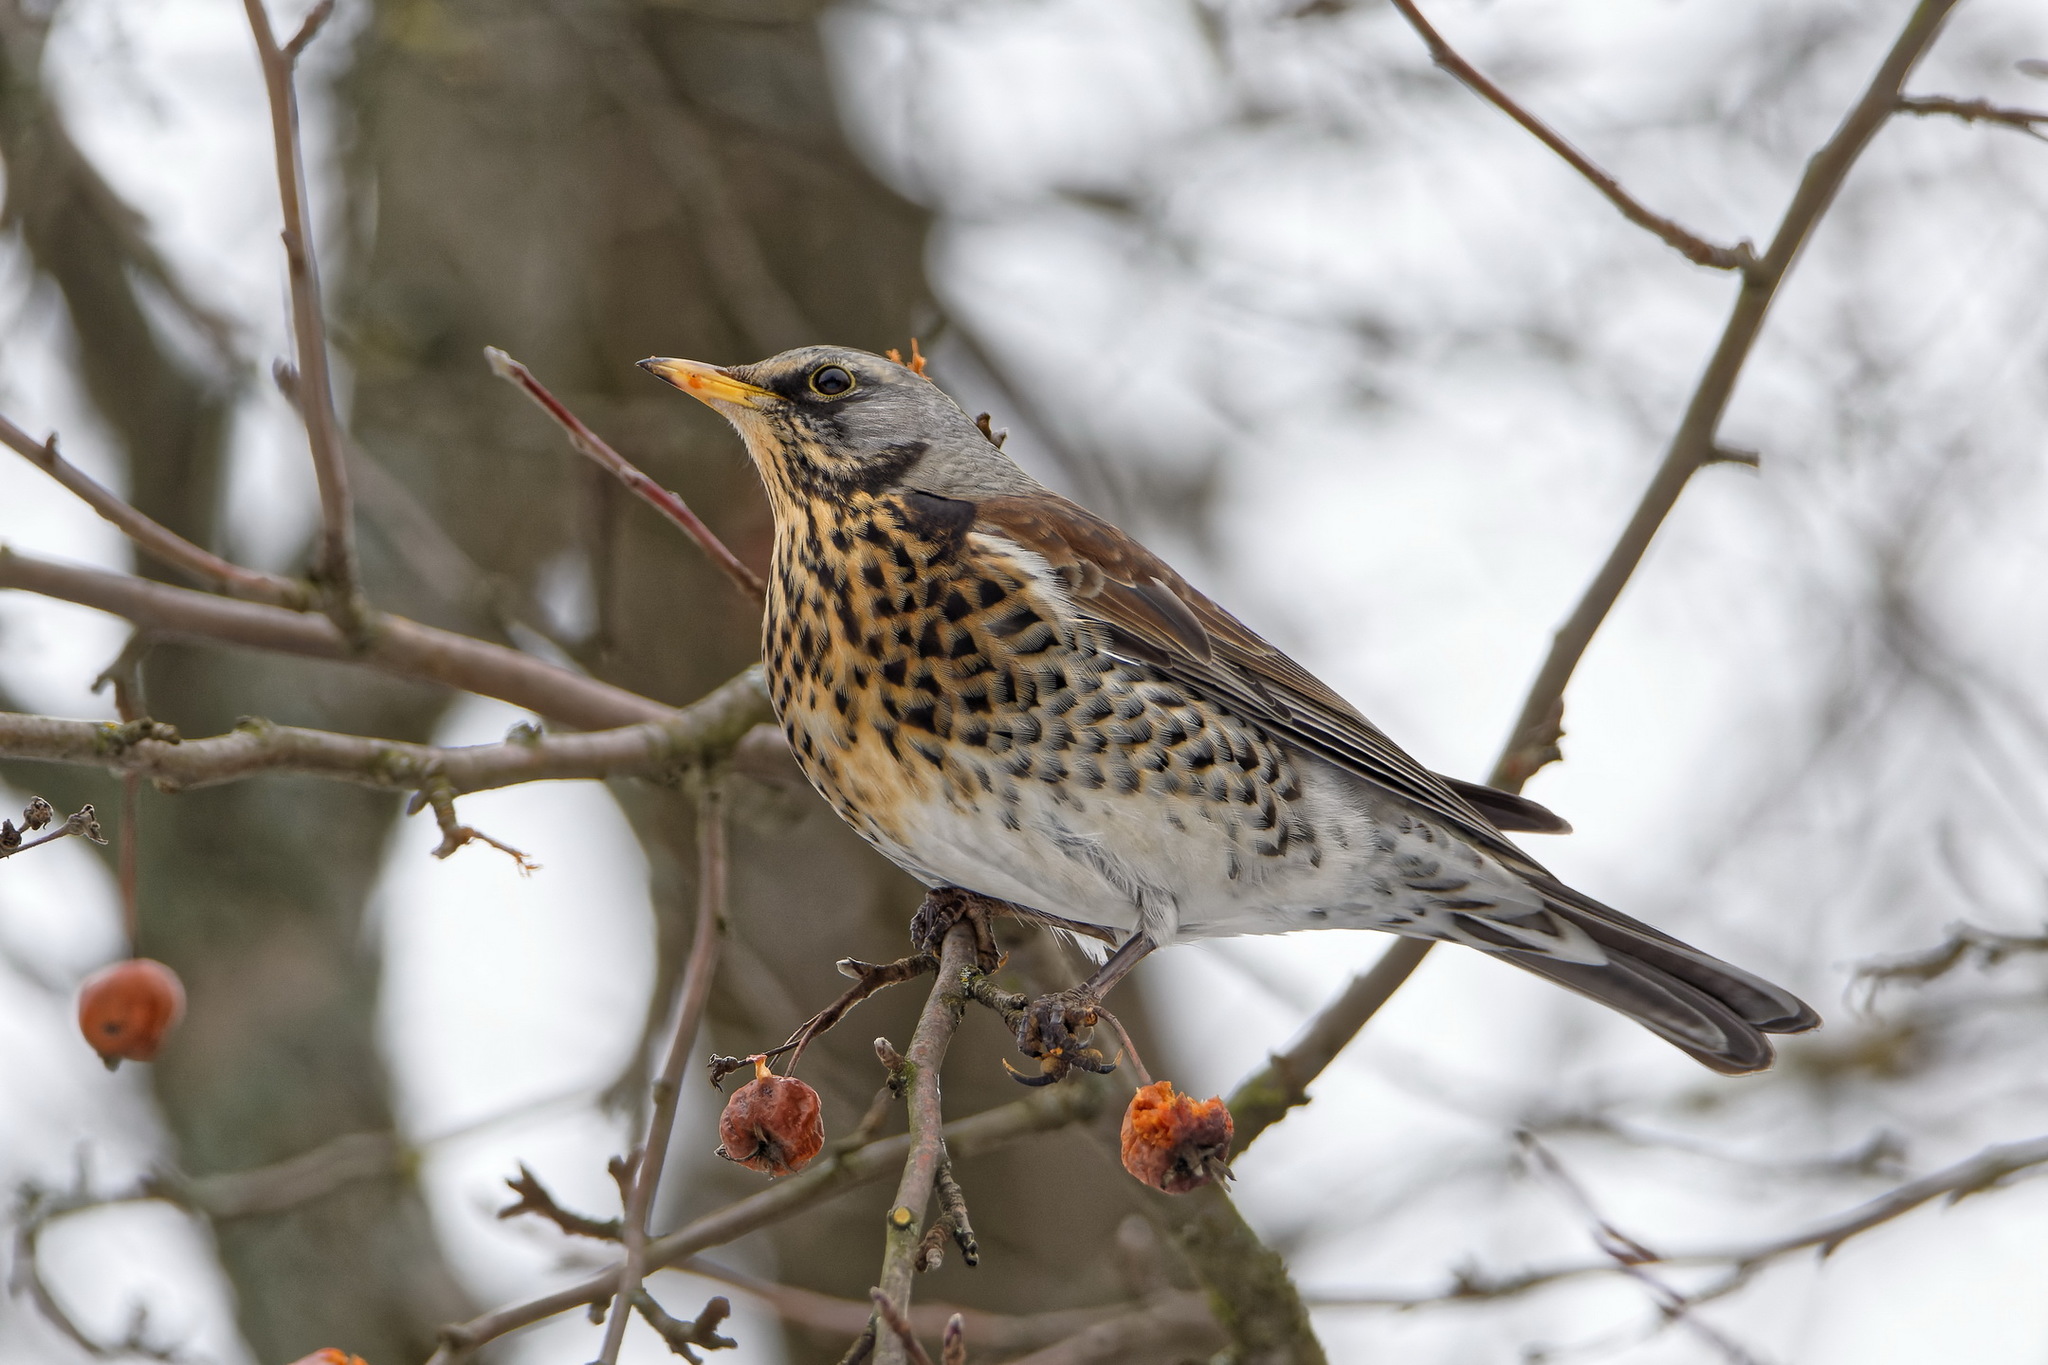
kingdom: Animalia
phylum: Chordata
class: Aves
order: Passeriformes
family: Turdidae
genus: Turdus
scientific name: Turdus pilaris
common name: Fieldfare
